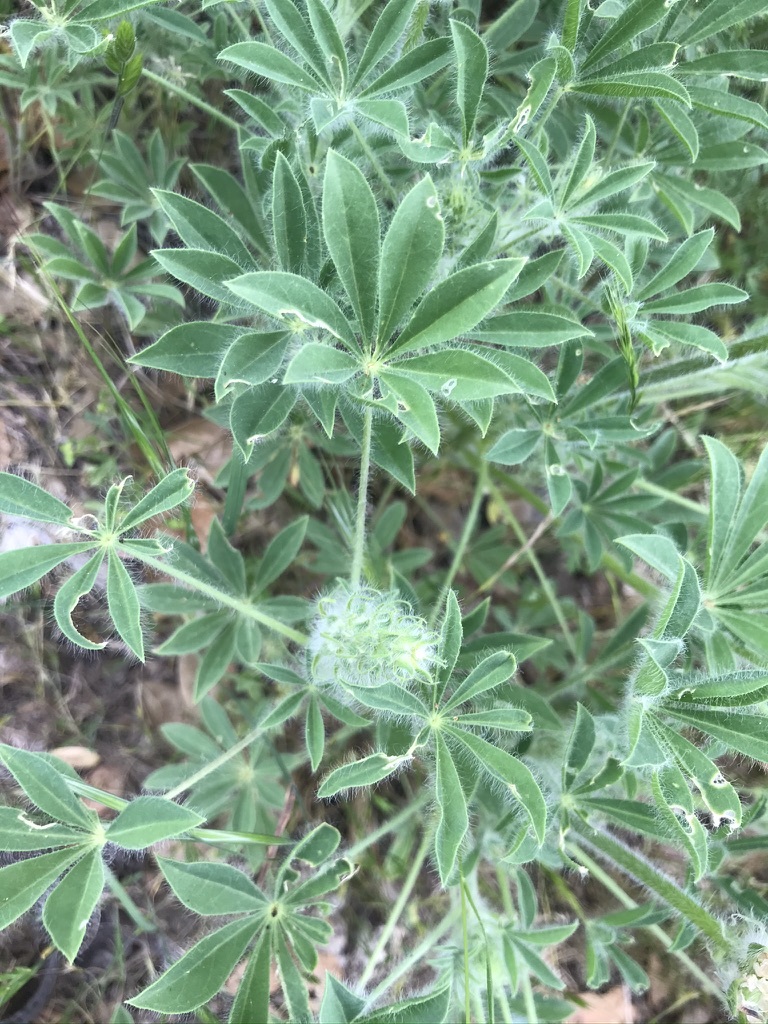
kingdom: Plantae
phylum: Tracheophyta
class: Magnoliopsida
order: Fabales
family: Fabaceae
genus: Lupinus
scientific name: Lupinus microcarpus
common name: Chick lupine
